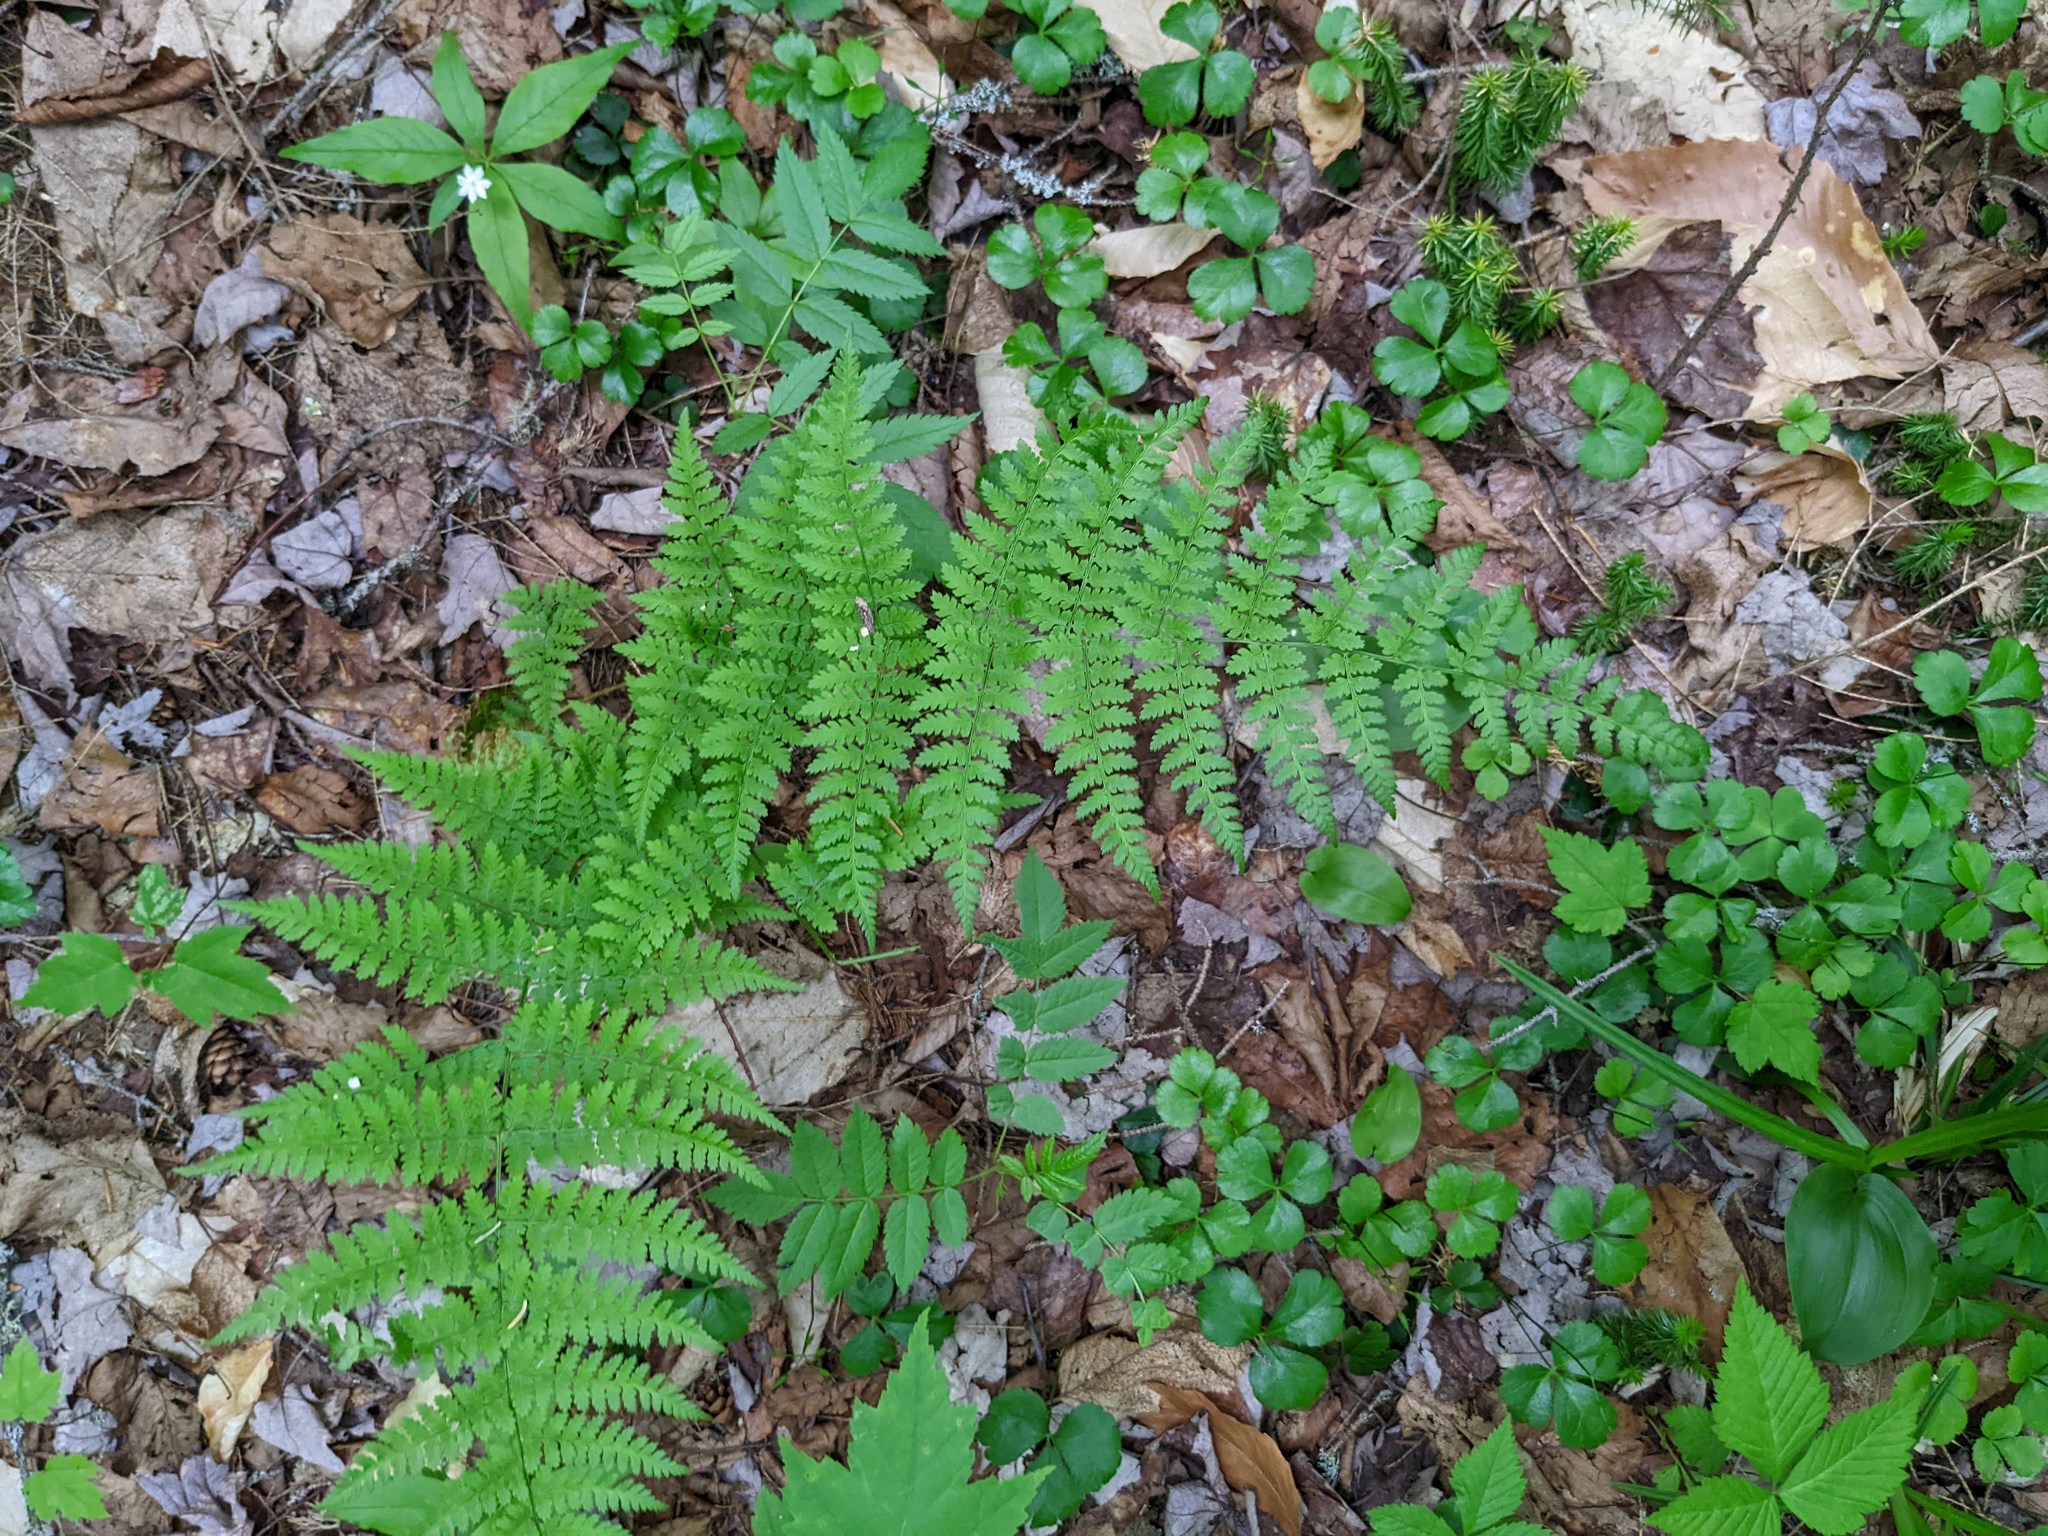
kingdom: Plantae
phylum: Tracheophyta
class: Polypodiopsida
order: Polypodiales
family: Dryopteridaceae
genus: Dryopteris
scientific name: Dryopteris intermedia
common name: Evergreen wood fern
